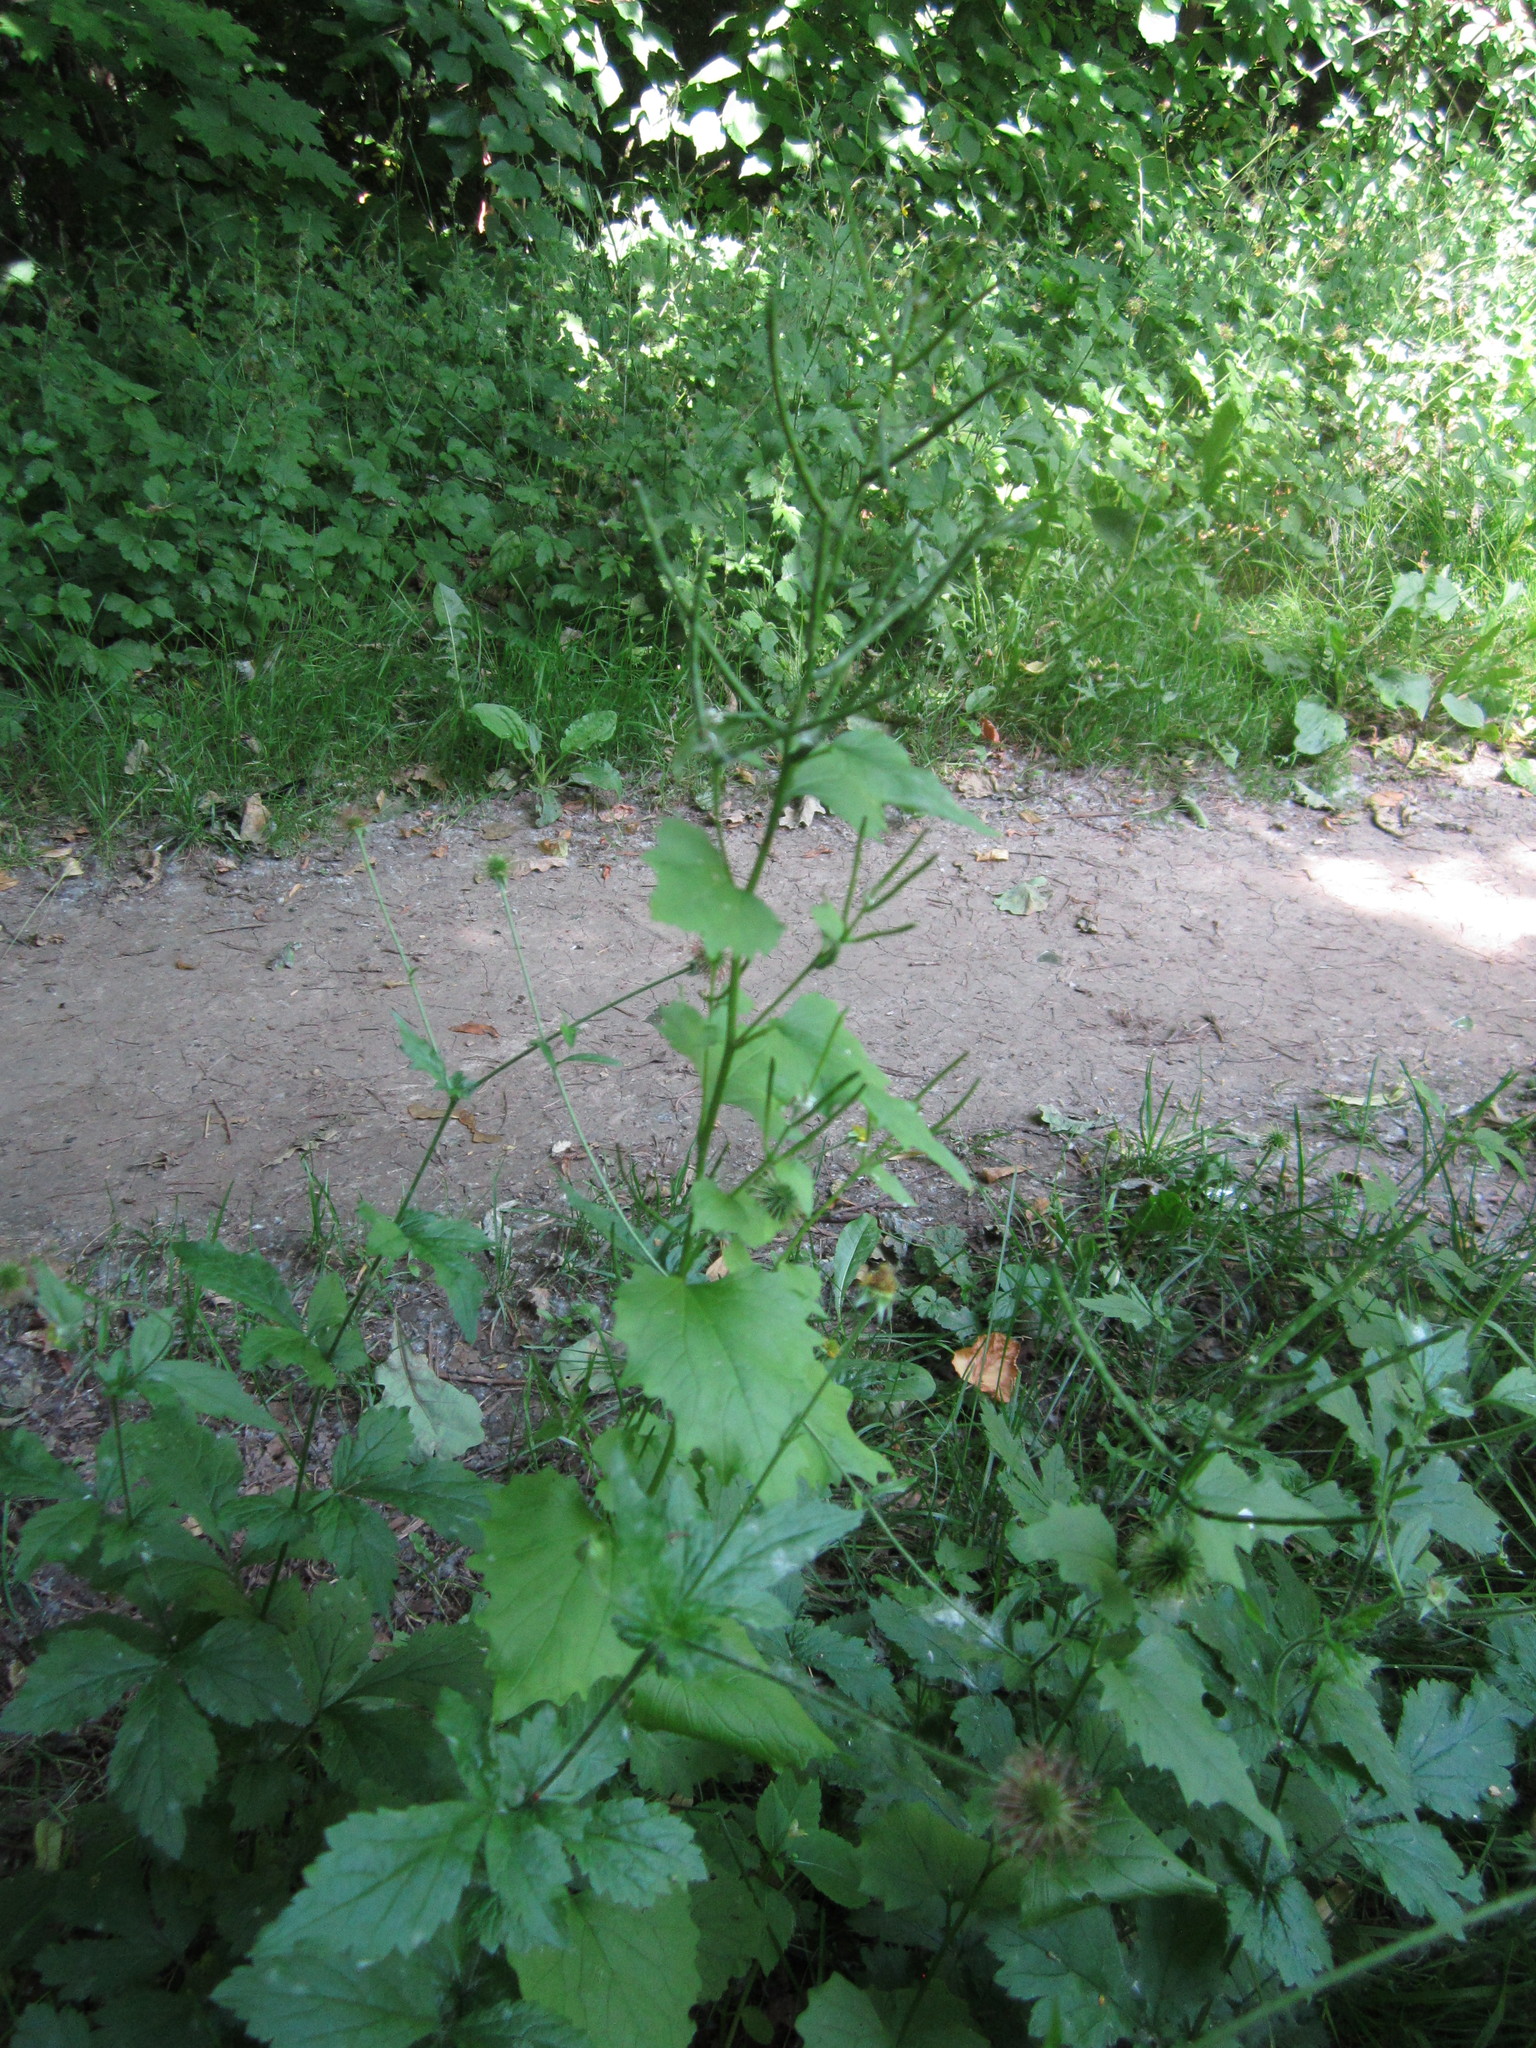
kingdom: Plantae
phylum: Tracheophyta
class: Magnoliopsida
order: Brassicales
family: Brassicaceae
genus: Alliaria
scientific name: Alliaria petiolata
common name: Garlic mustard
